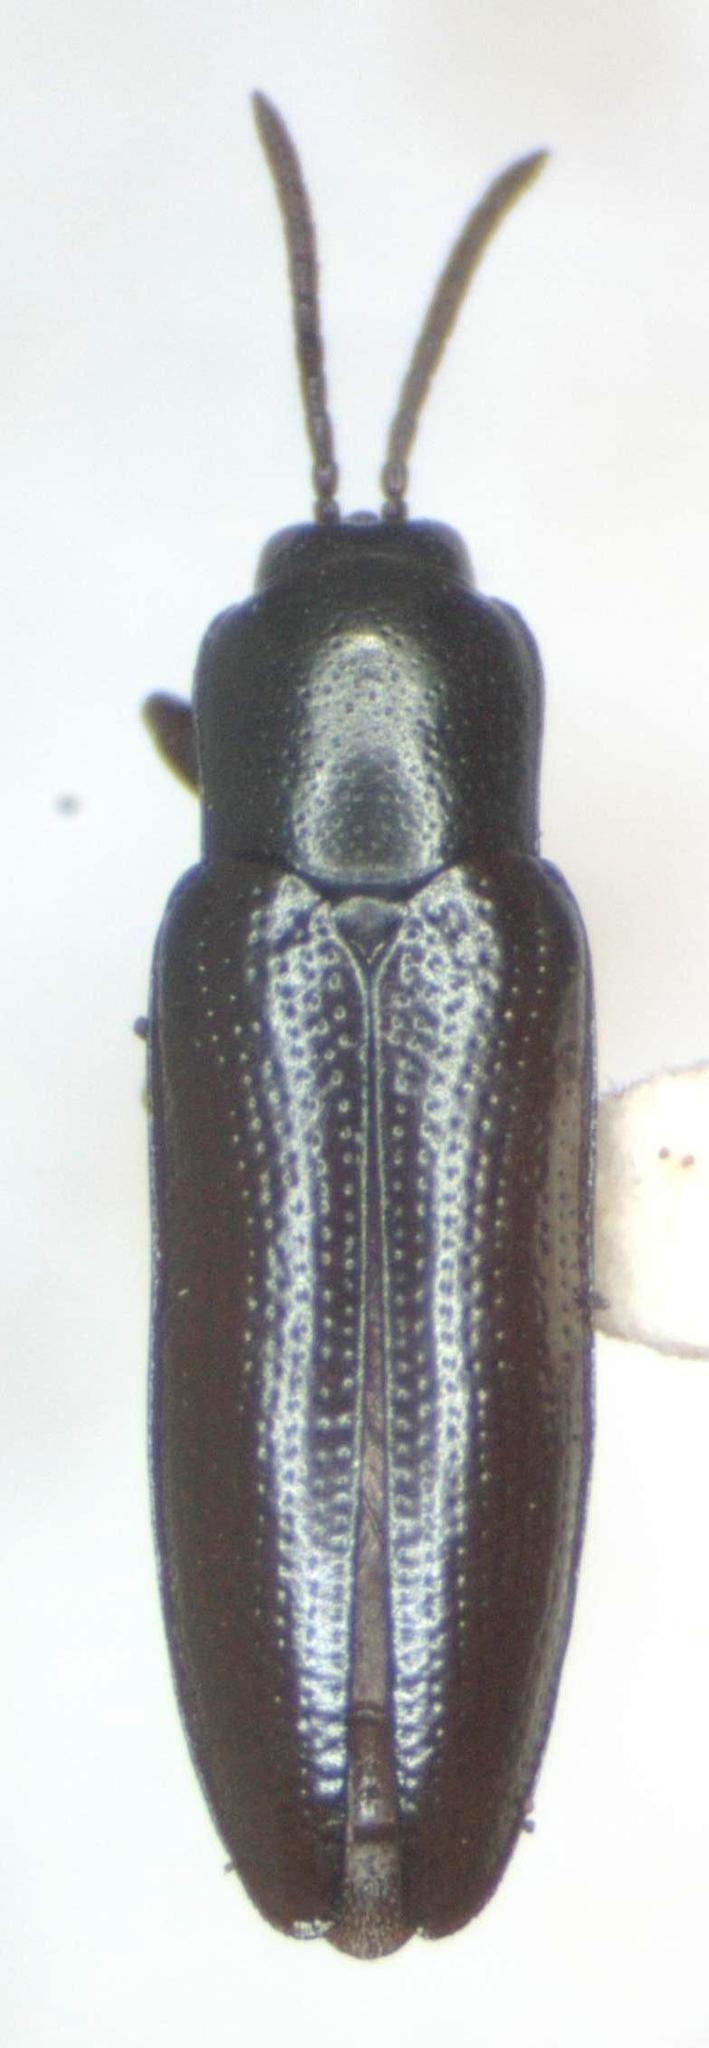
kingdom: Animalia
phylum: Arthropoda
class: Insecta
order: Coleoptera
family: Chrysomelidae
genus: Stenispa
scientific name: Stenispa sallei
